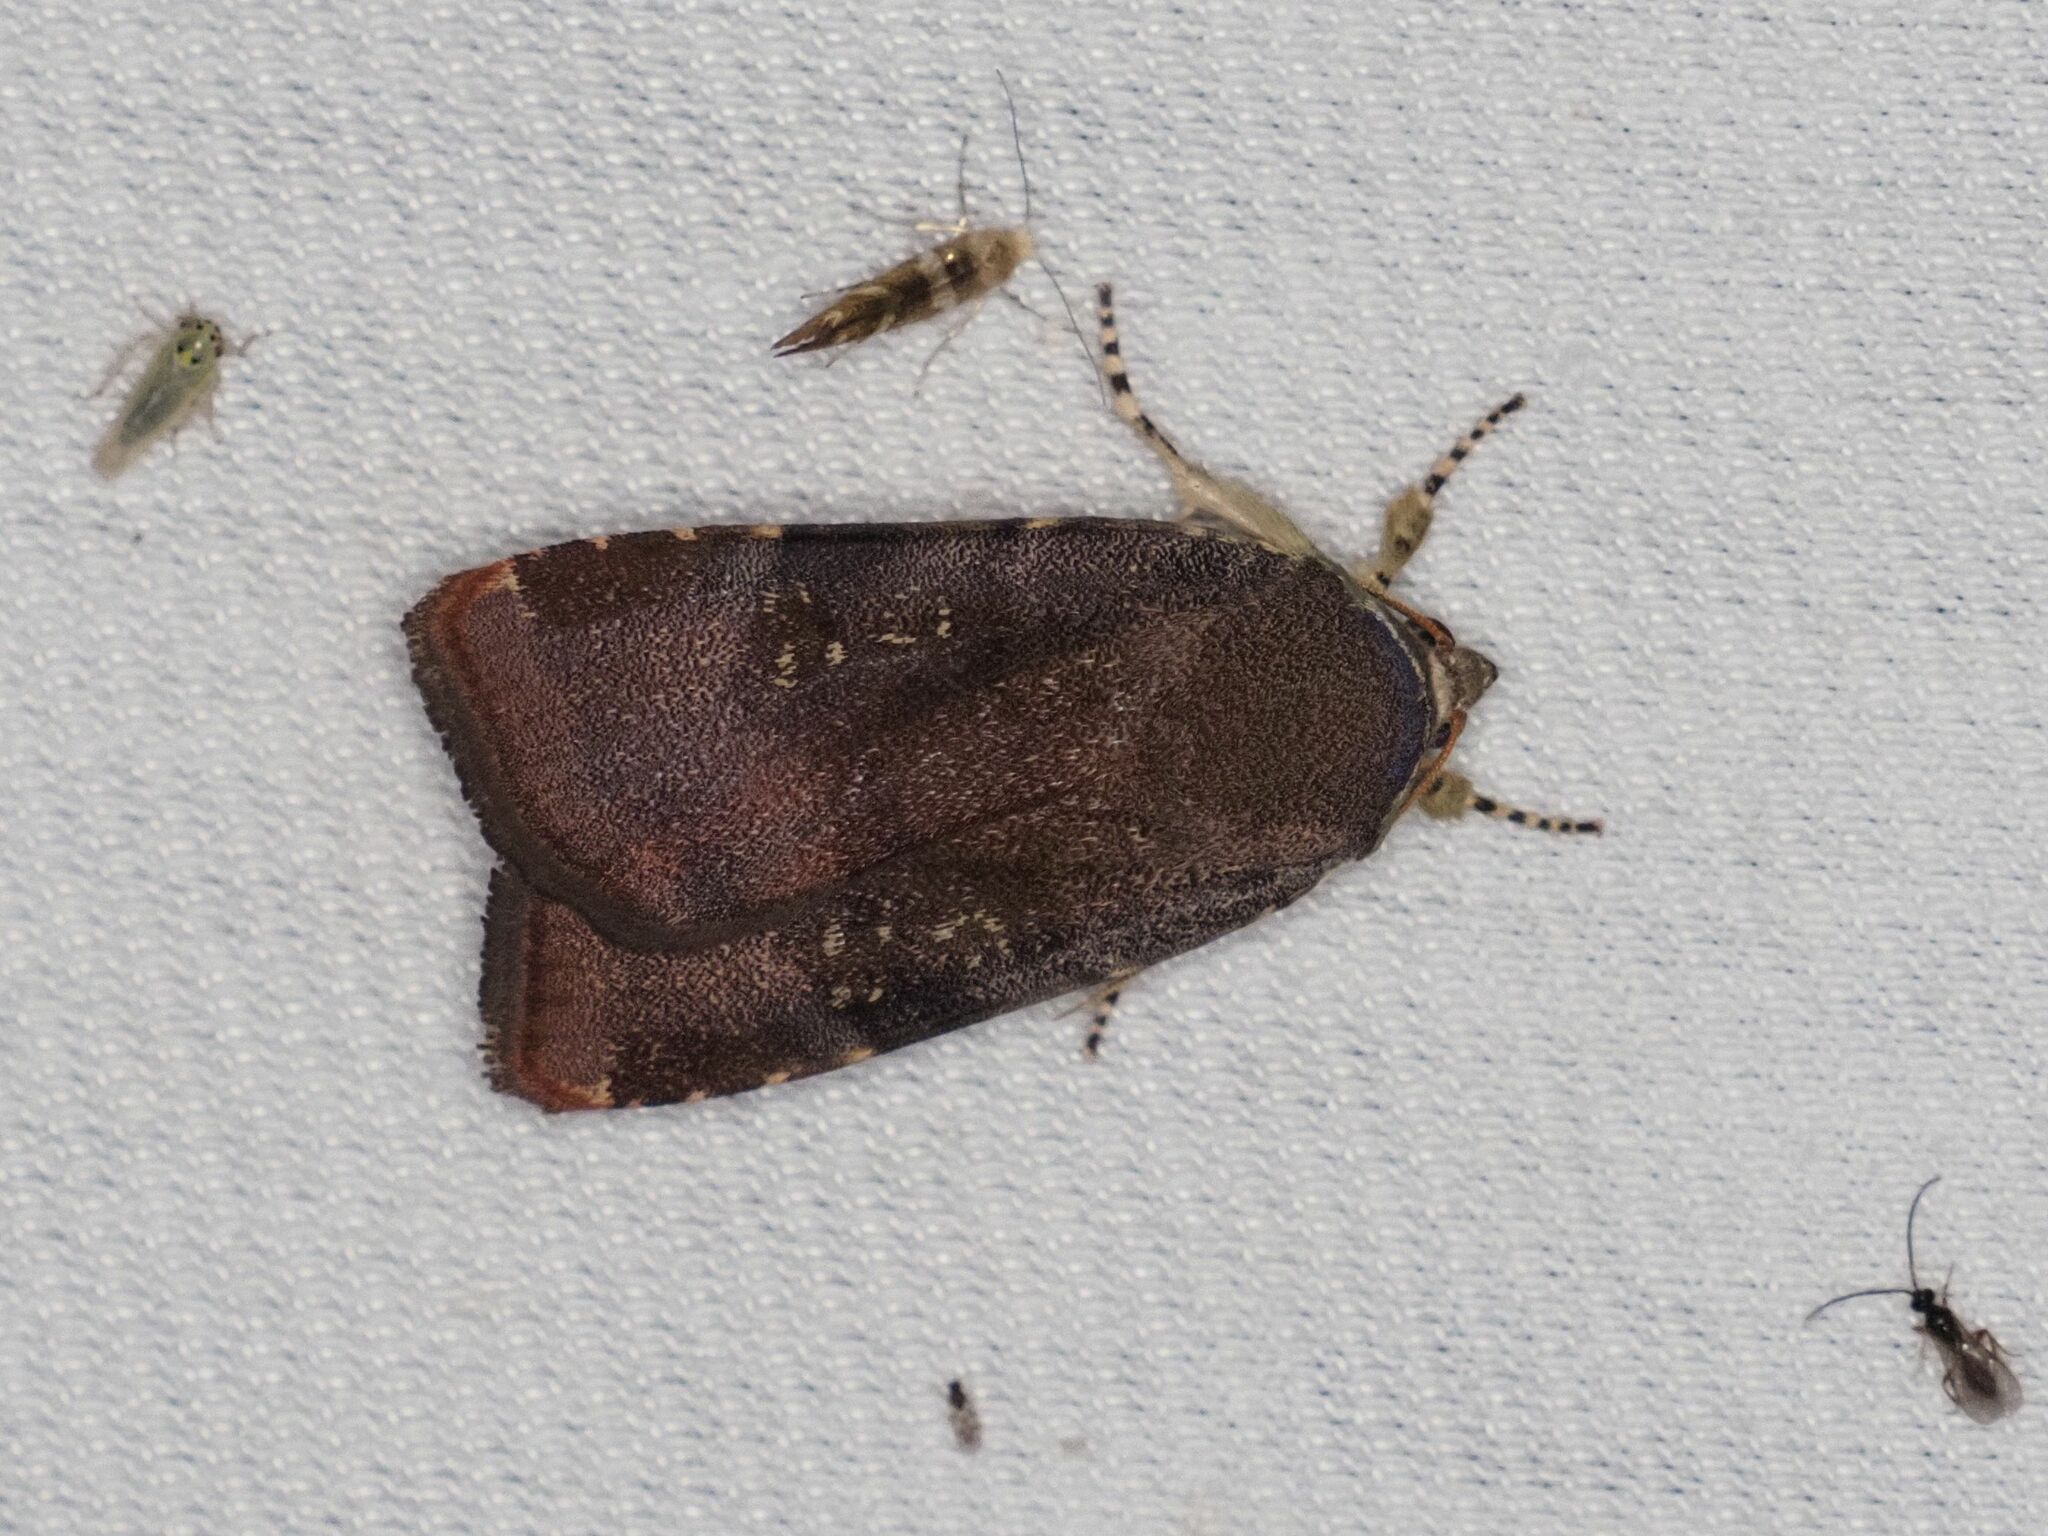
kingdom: Animalia
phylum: Arthropoda
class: Insecta
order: Lepidoptera
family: Noctuidae
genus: Noctua
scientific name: Noctua janthina
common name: Langmaid's yellow underwing
